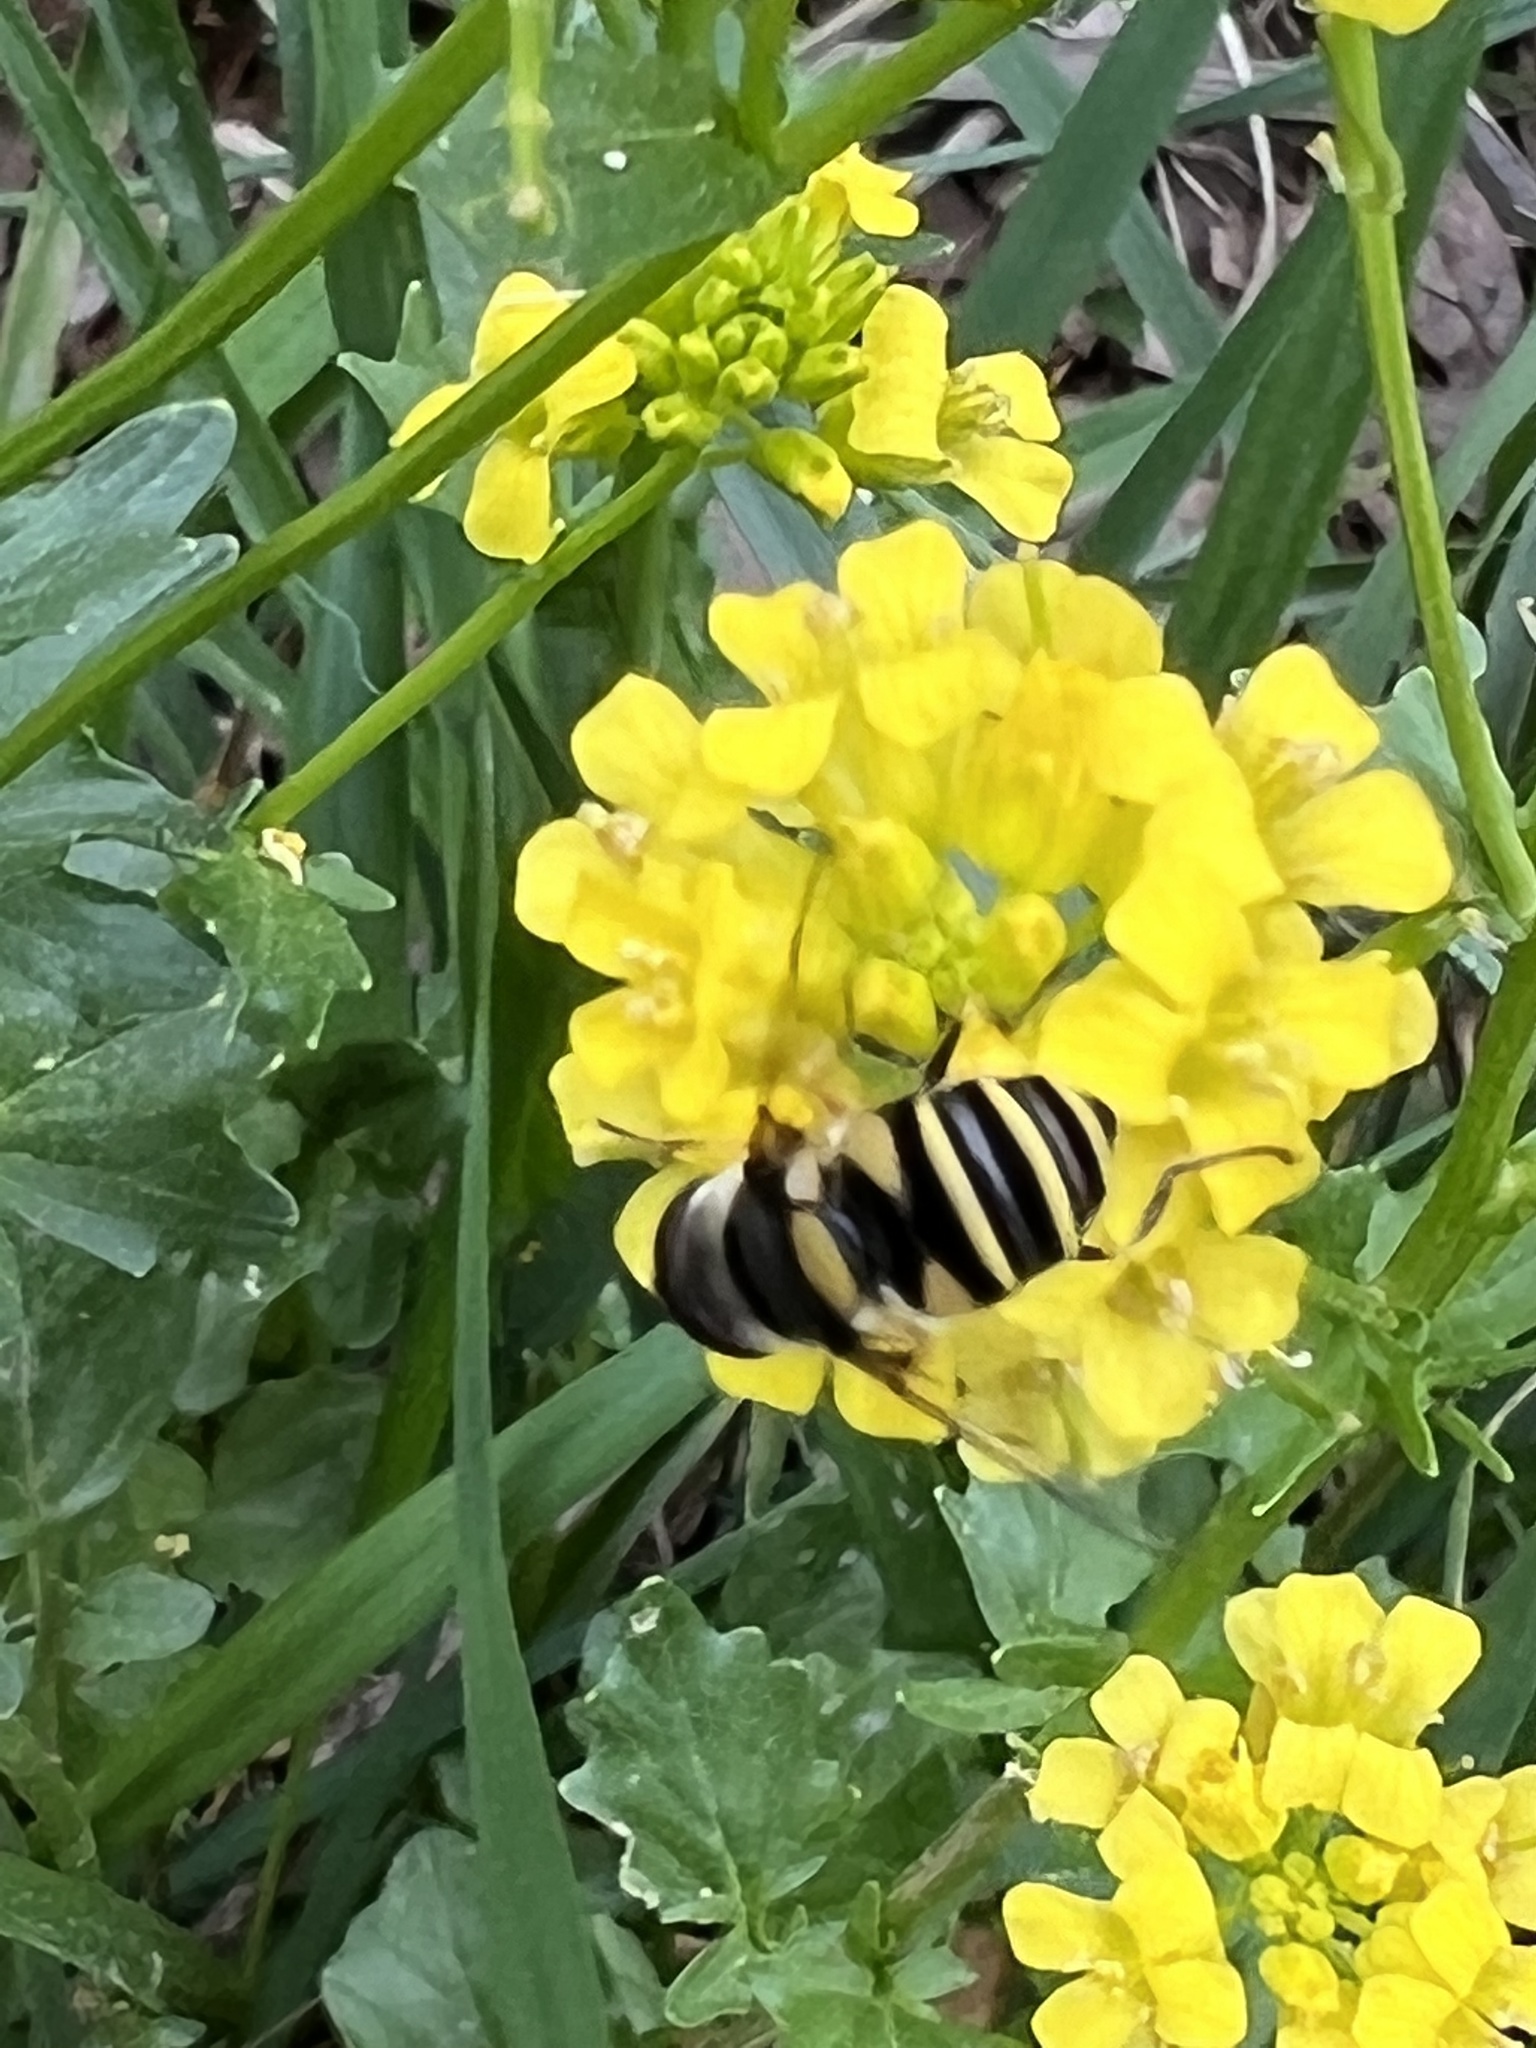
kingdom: Animalia
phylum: Arthropoda
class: Insecta
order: Diptera
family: Syrphidae
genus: Eristalis
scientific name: Eristalis transversa
